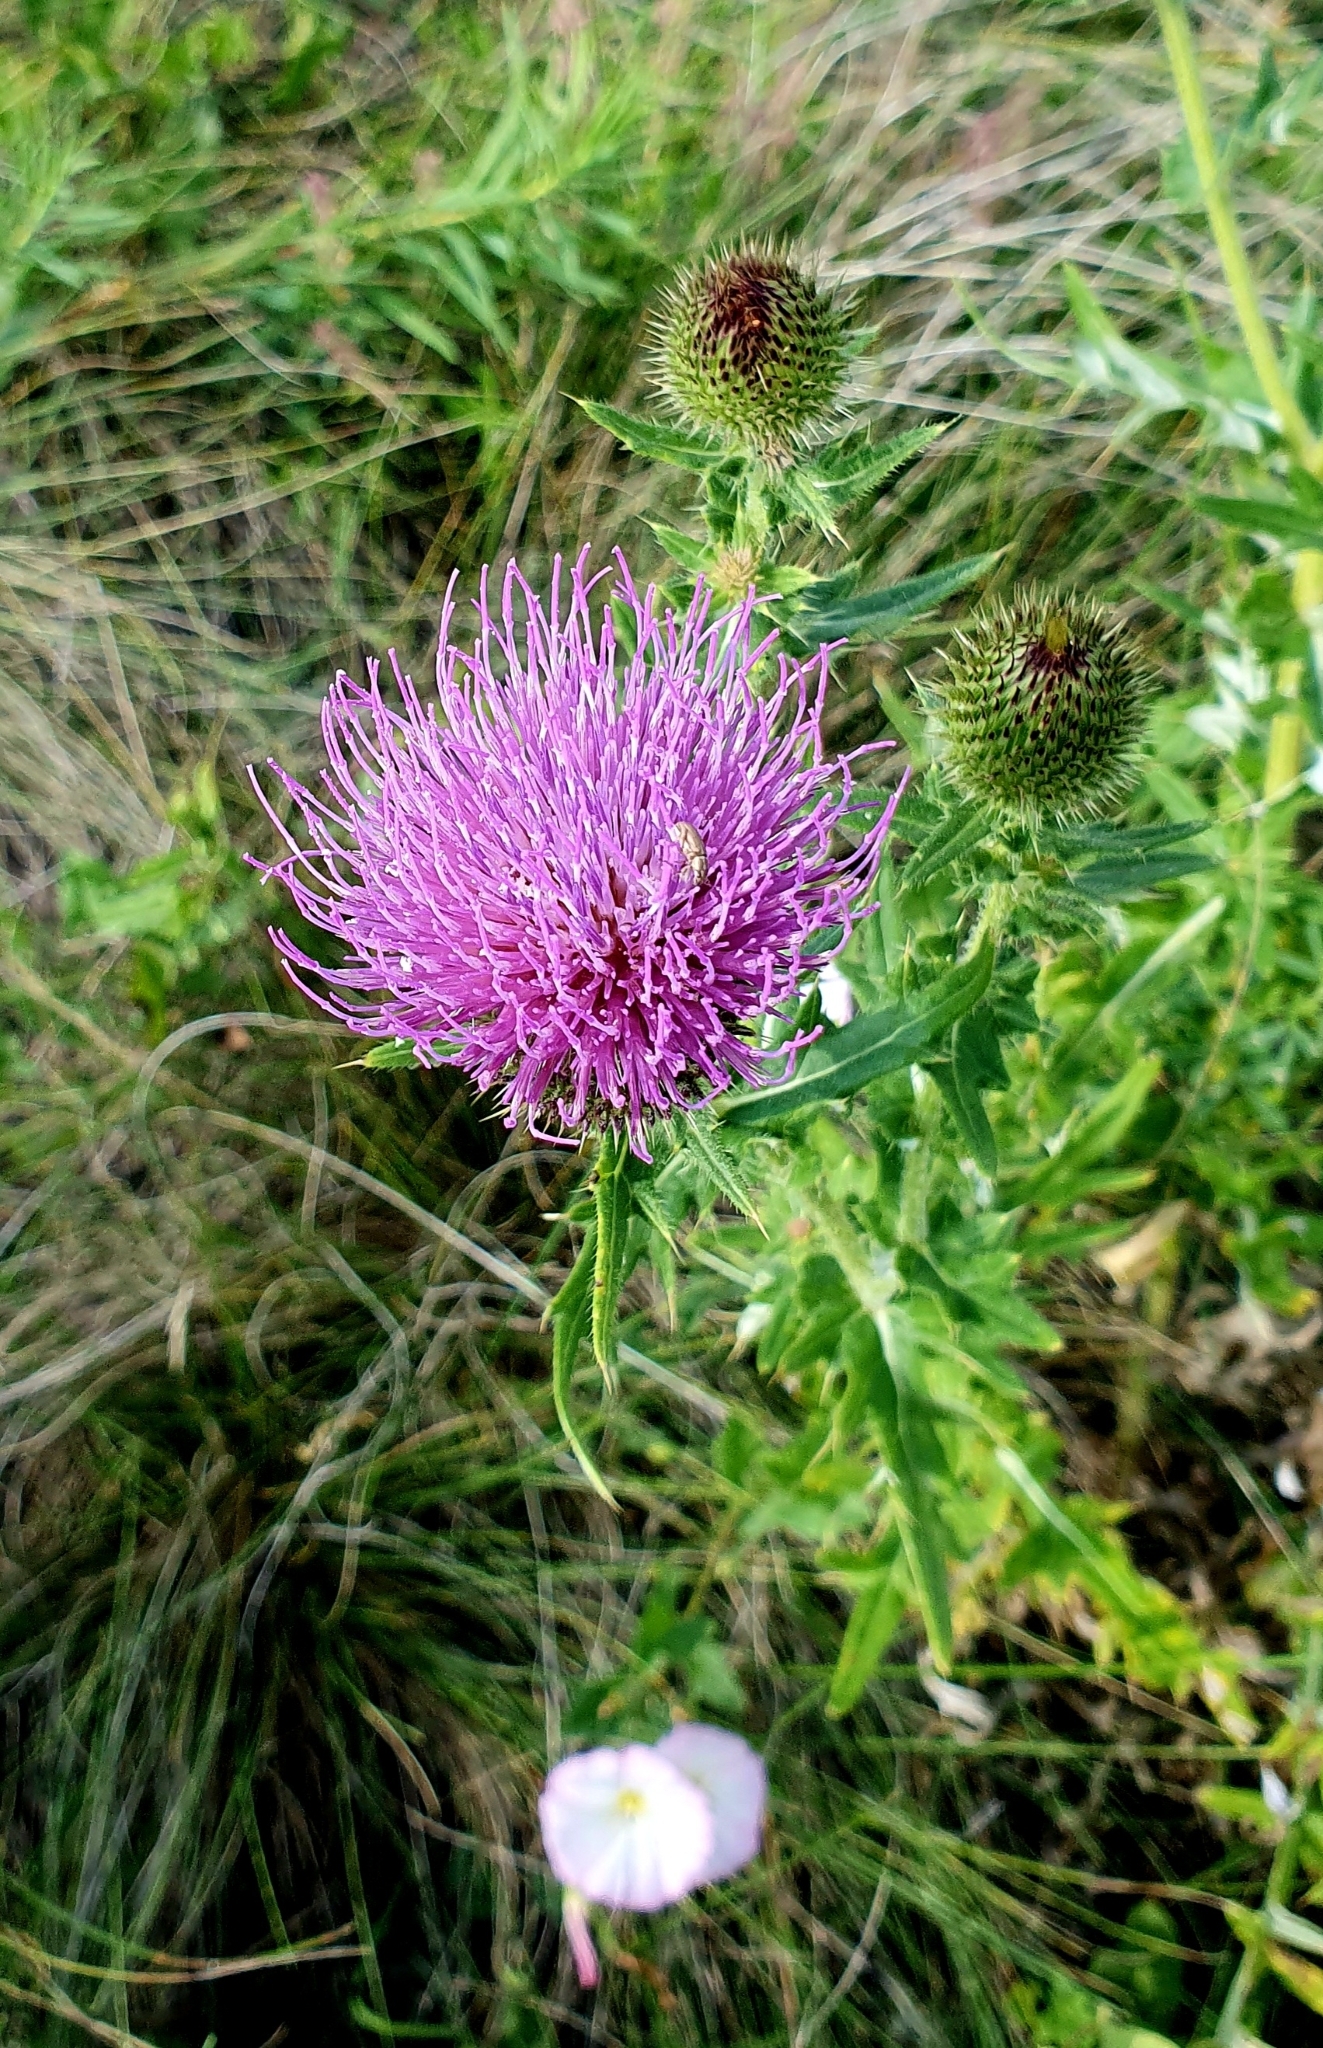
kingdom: Plantae
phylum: Tracheophyta
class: Magnoliopsida
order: Asterales
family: Asteraceae
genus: Cirsium
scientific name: Cirsium serrulatum
